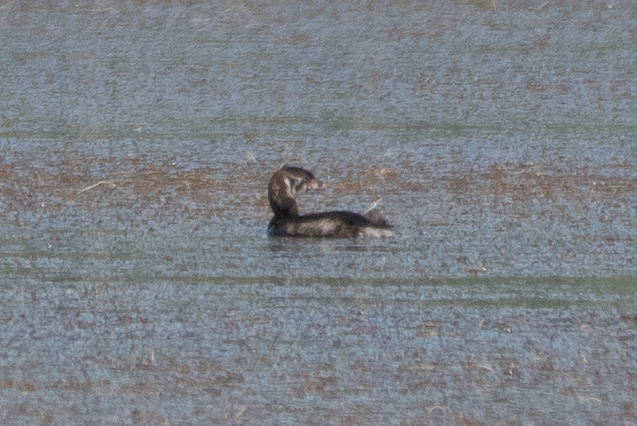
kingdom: Animalia
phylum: Chordata
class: Aves
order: Podicipediformes
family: Podicipedidae
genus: Podilymbus
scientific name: Podilymbus podiceps
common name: Pied-billed grebe
